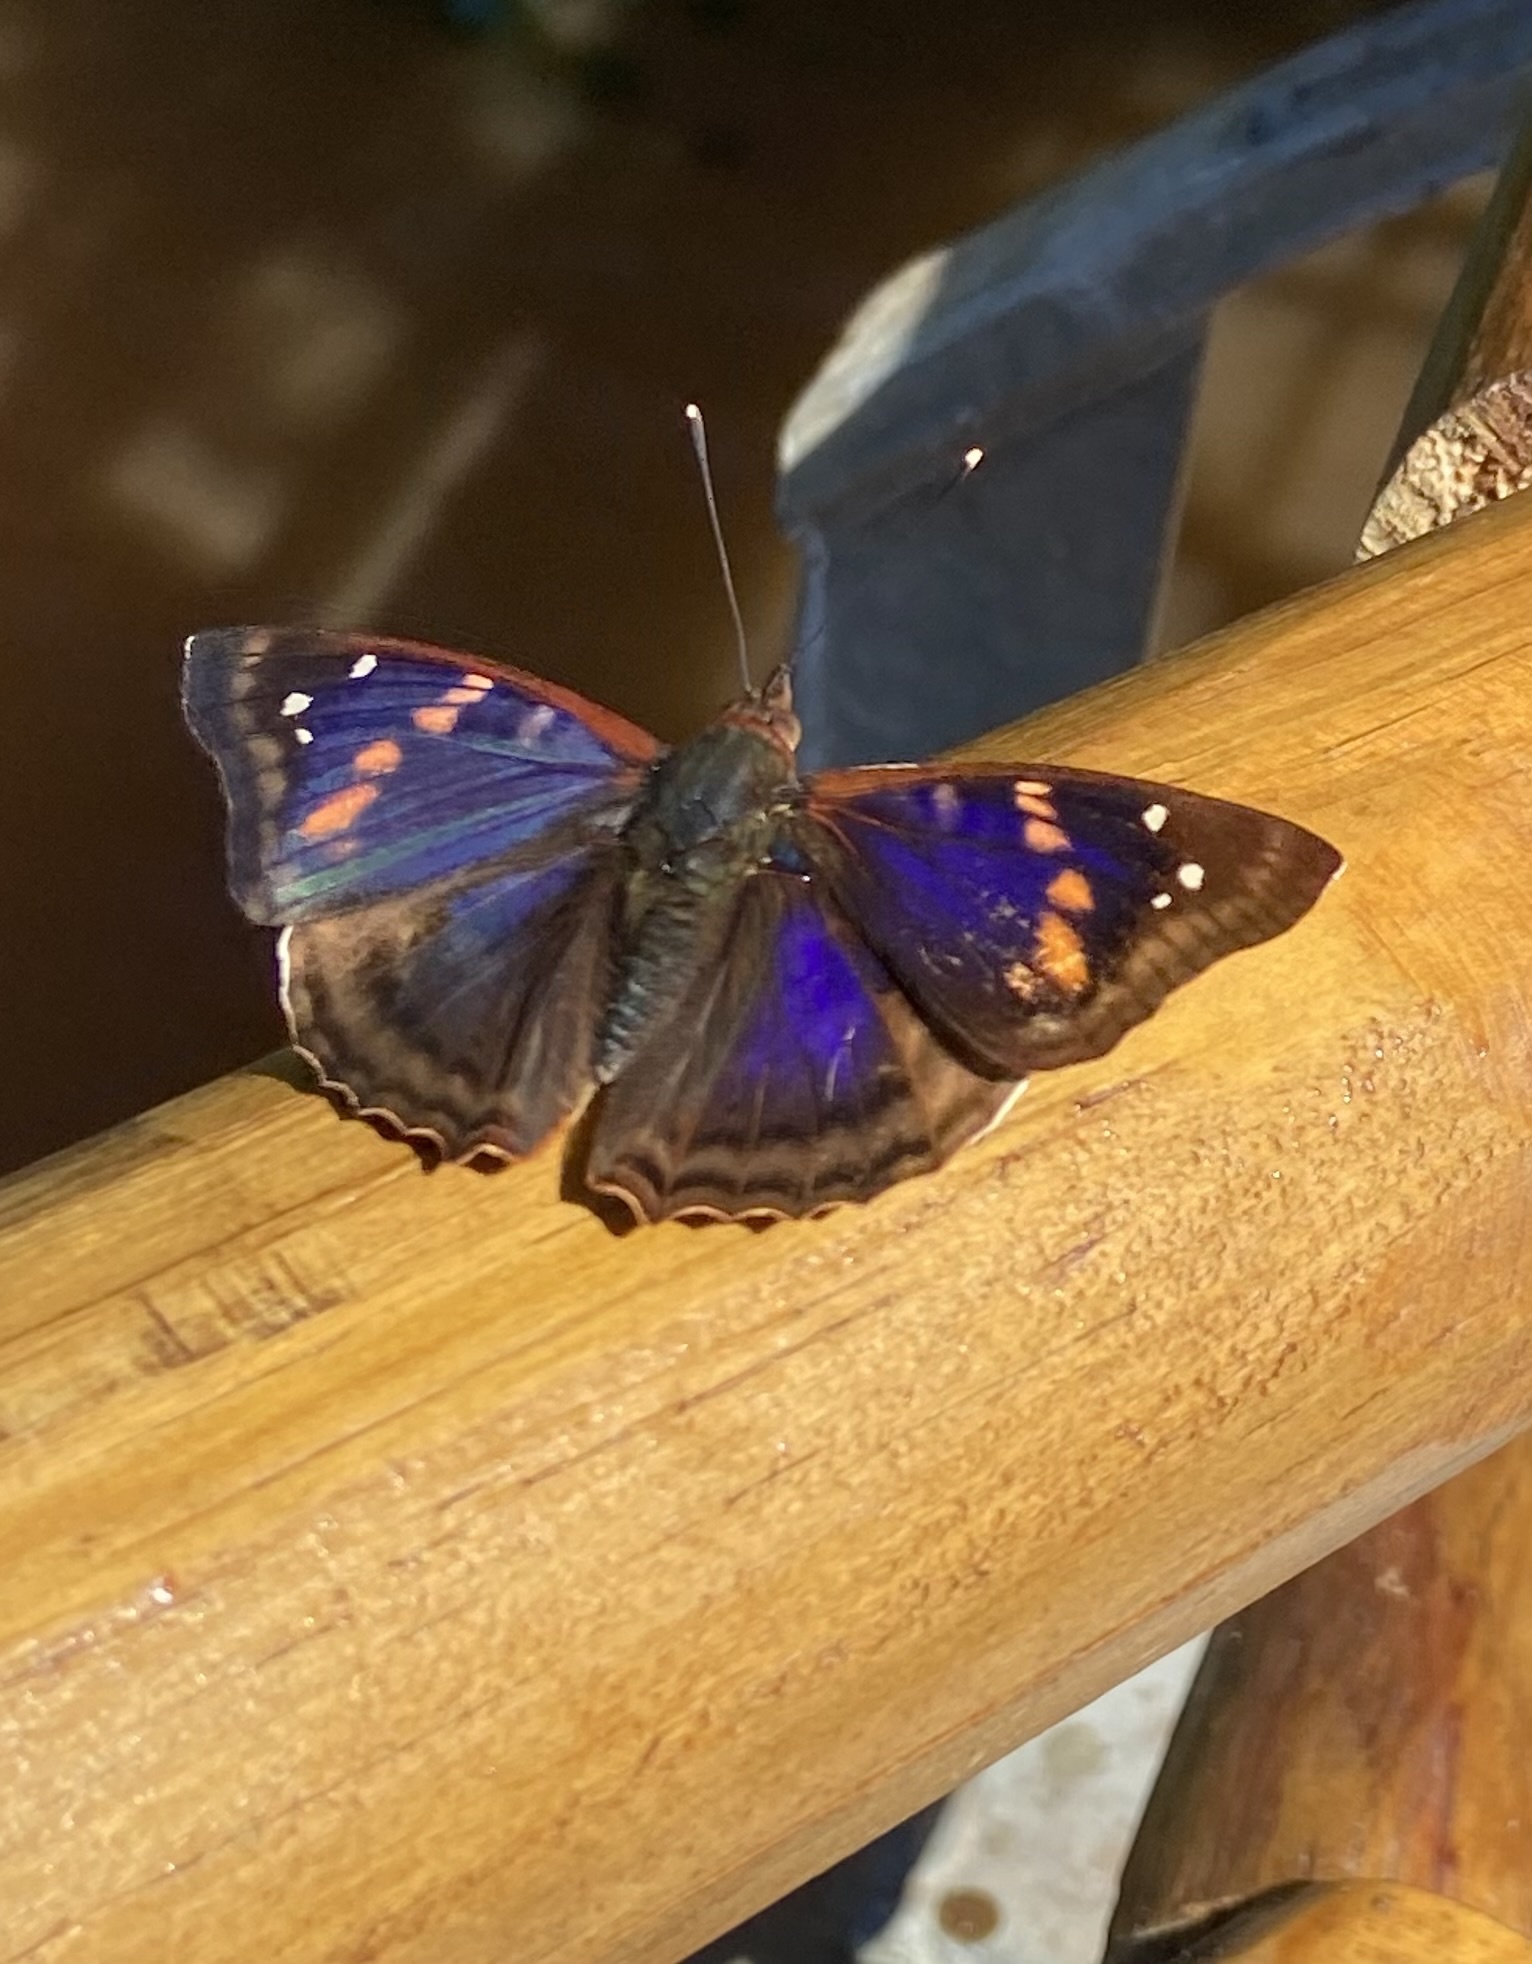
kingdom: Animalia
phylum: Arthropoda
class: Insecta
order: Lepidoptera
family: Nymphalidae
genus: Doxocopa
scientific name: Doxocopa agathina
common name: Agathina emperor
